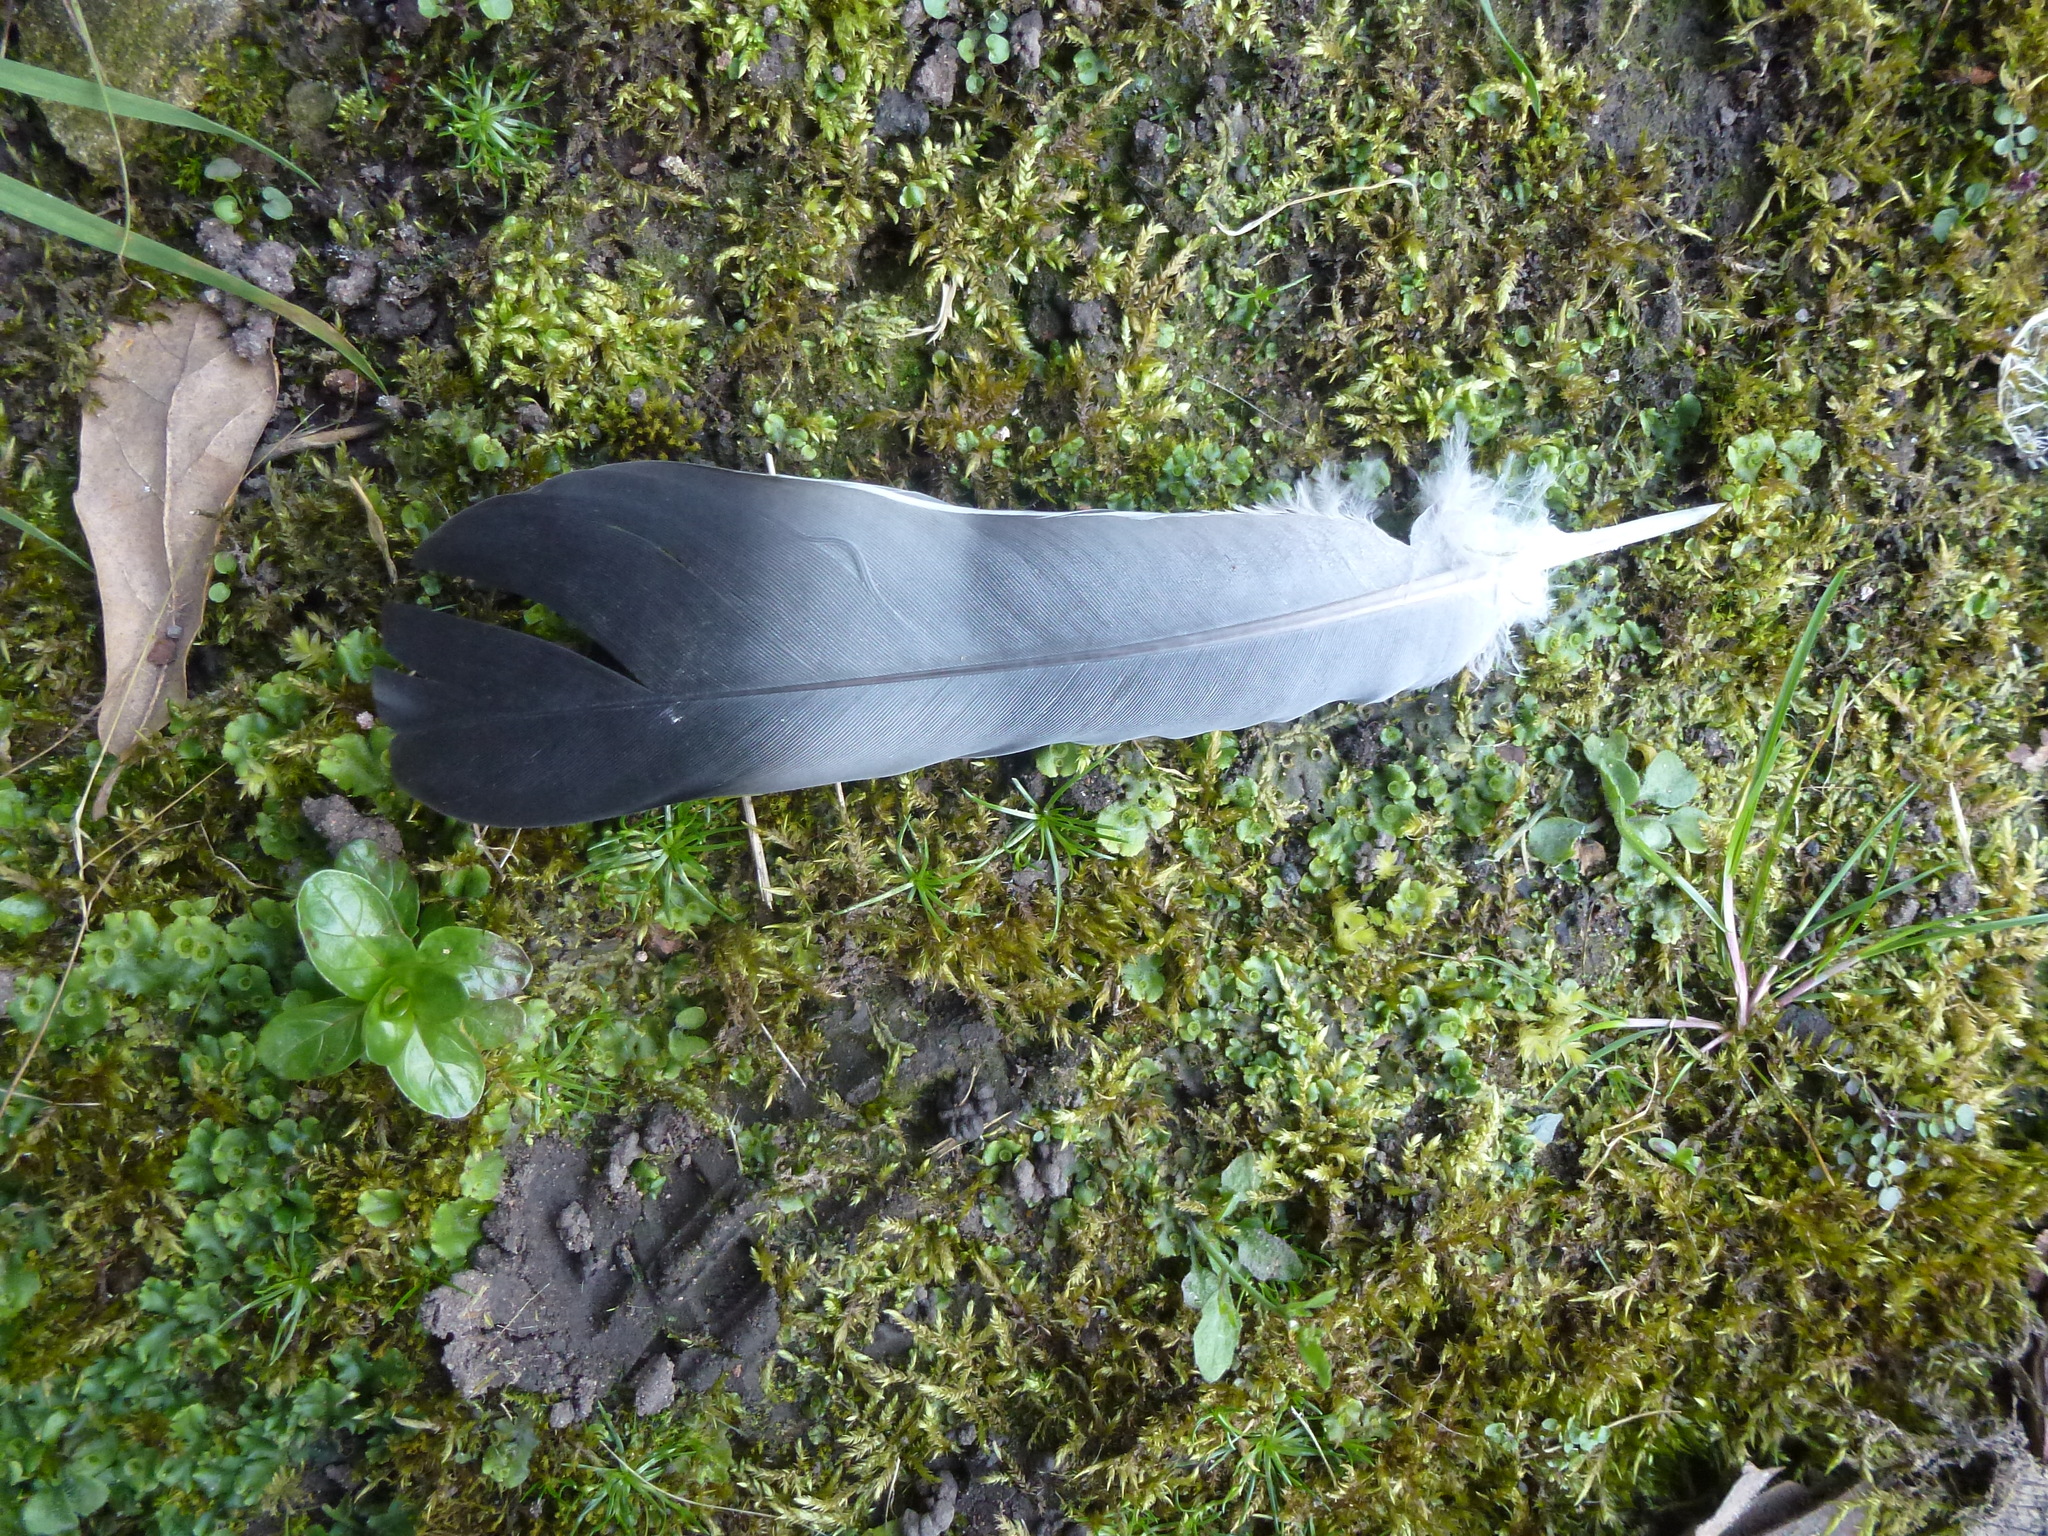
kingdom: Animalia
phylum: Chordata
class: Aves
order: Columbiformes
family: Columbidae
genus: Columba
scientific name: Columba palumbus
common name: Common wood pigeon
